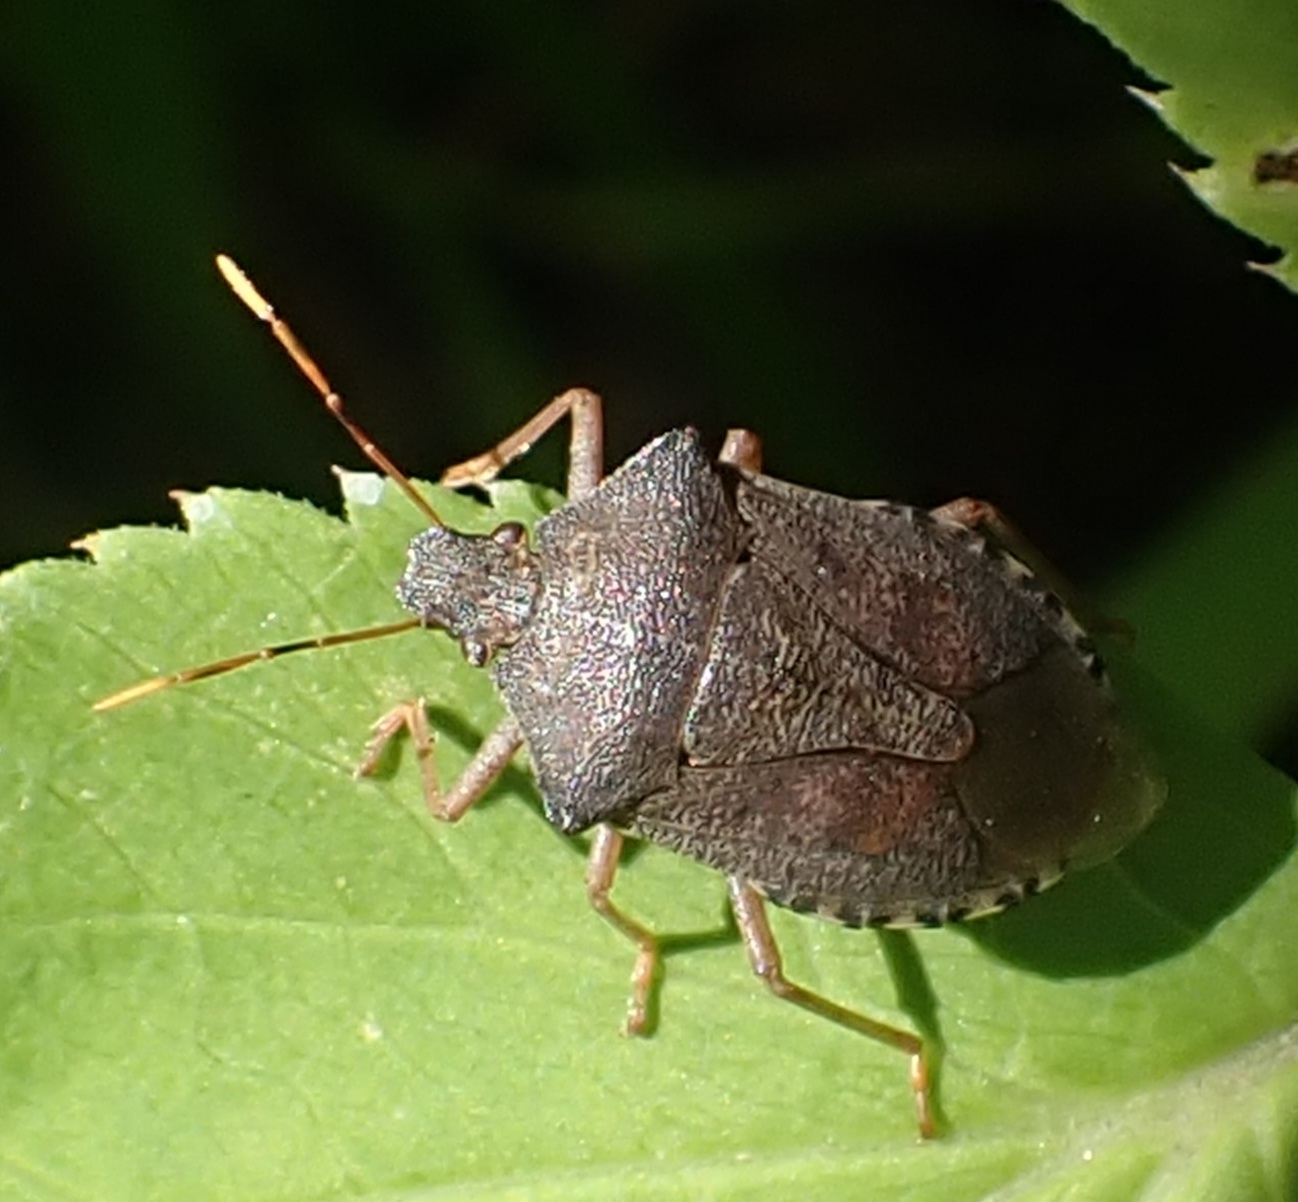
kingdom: Animalia
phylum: Arthropoda
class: Insecta
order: Hemiptera
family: Pentatomidae
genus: Arma
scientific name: Arma custos
